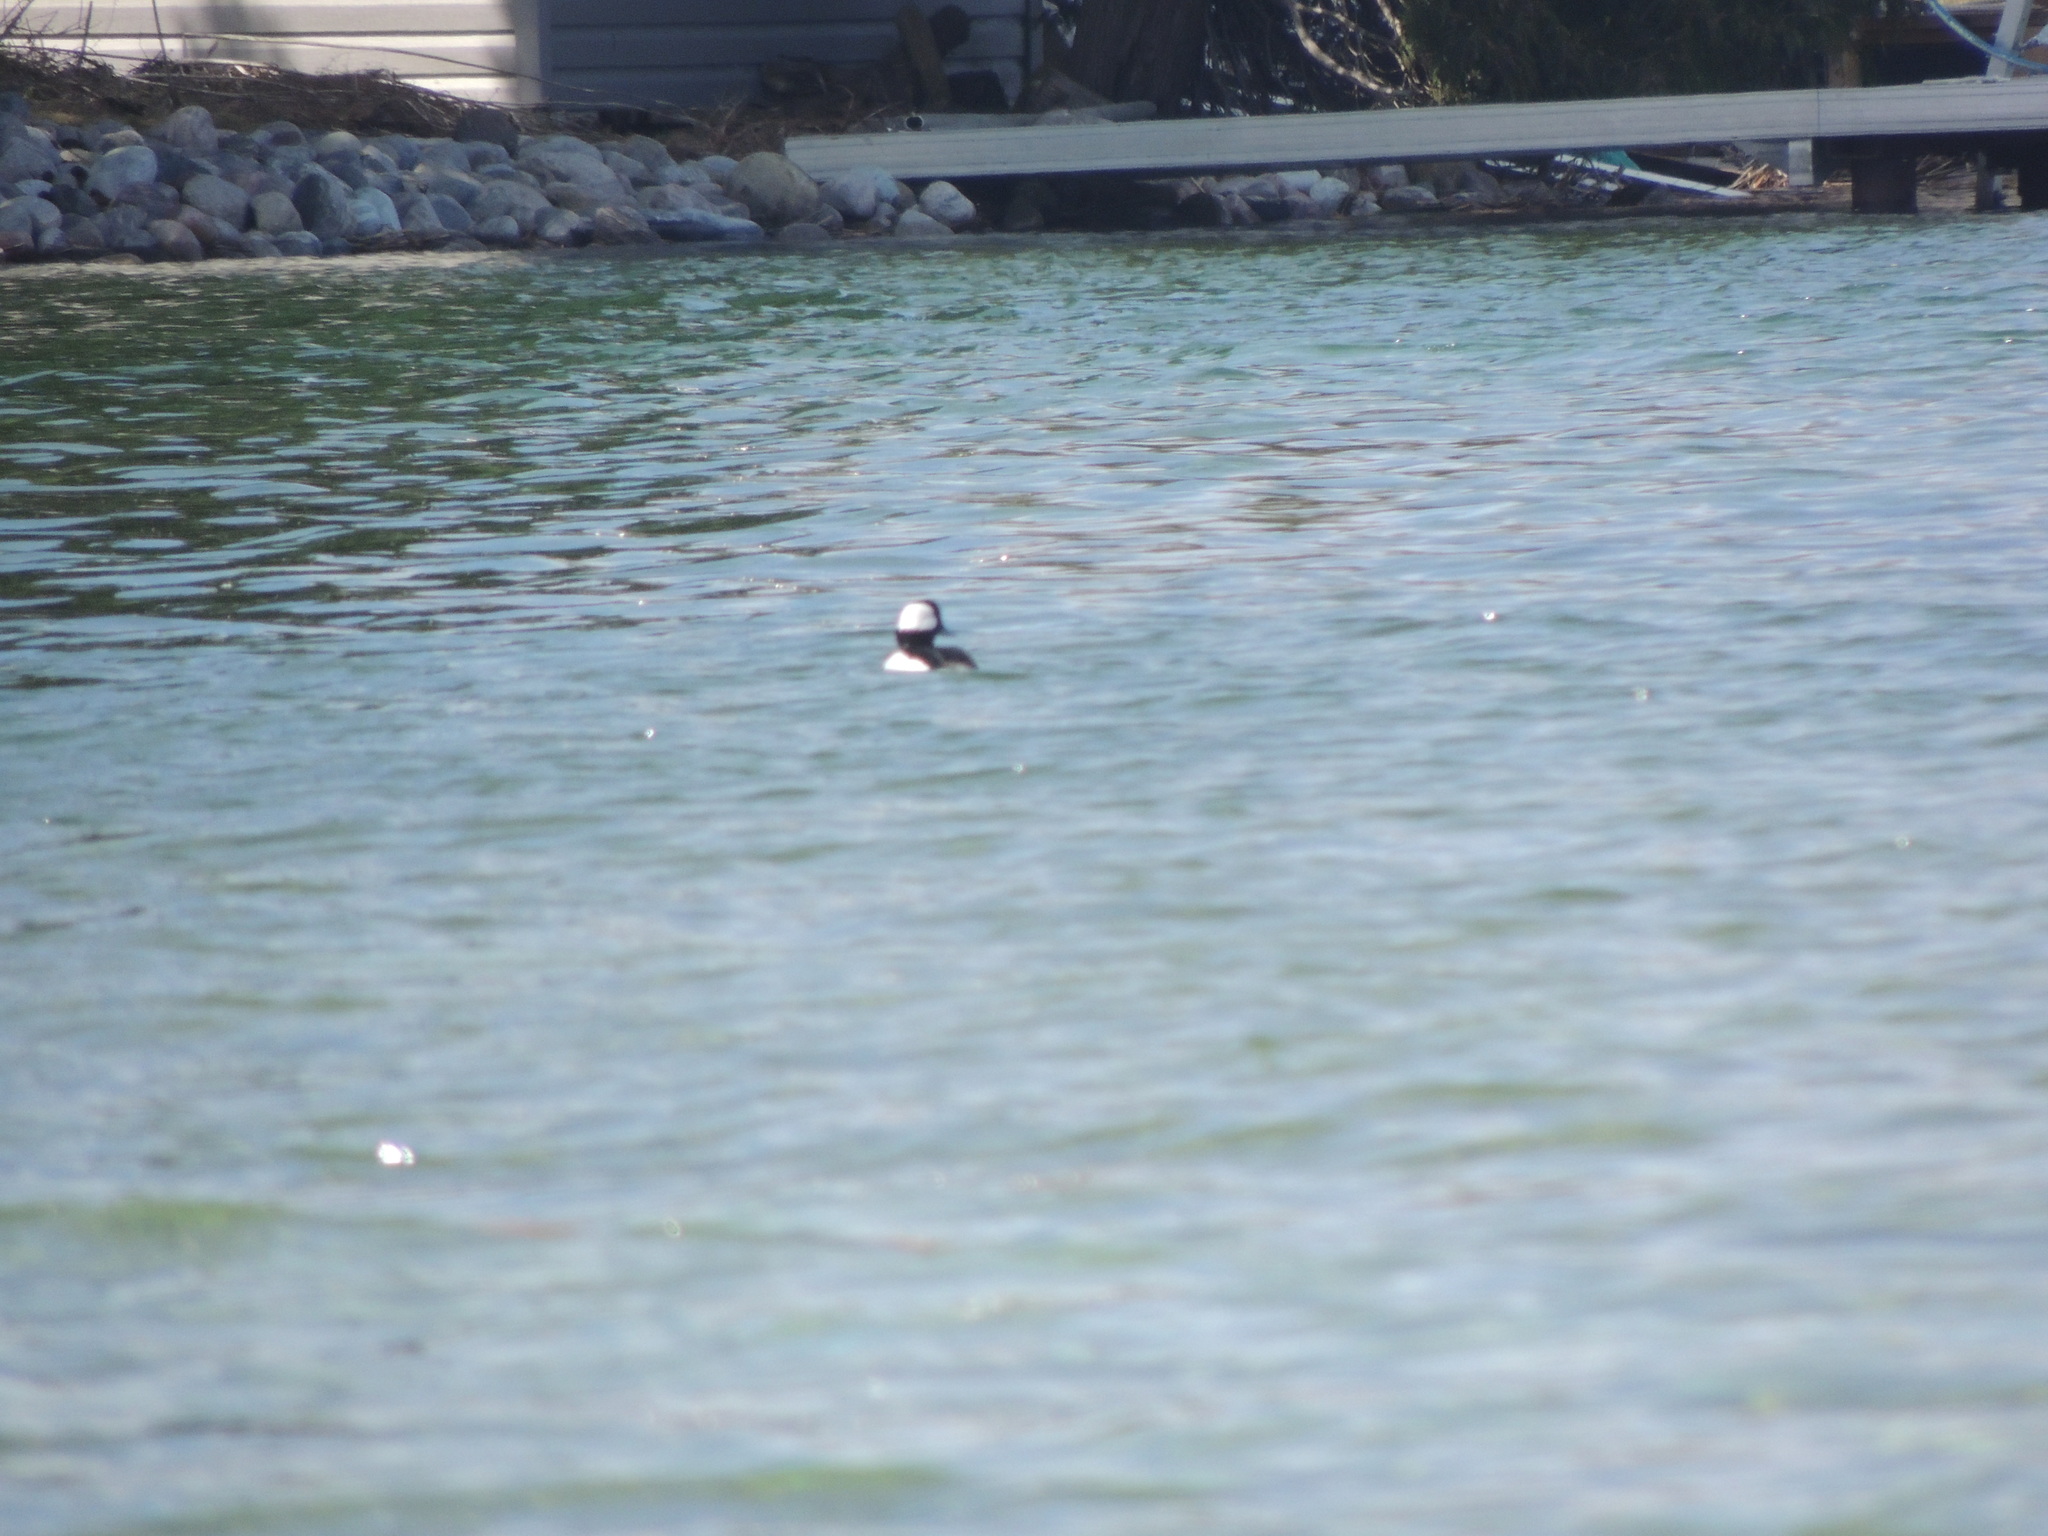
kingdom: Animalia
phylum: Chordata
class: Aves
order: Anseriformes
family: Anatidae
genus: Bucephala
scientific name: Bucephala albeola
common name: Bufflehead
